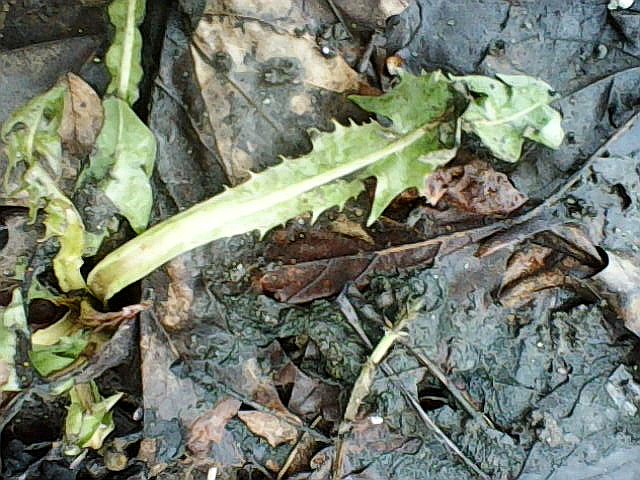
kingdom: Plantae
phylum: Tracheophyta
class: Magnoliopsida
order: Asterales
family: Asteraceae
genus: Taraxacum
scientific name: Taraxacum officinale
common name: Common dandelion
